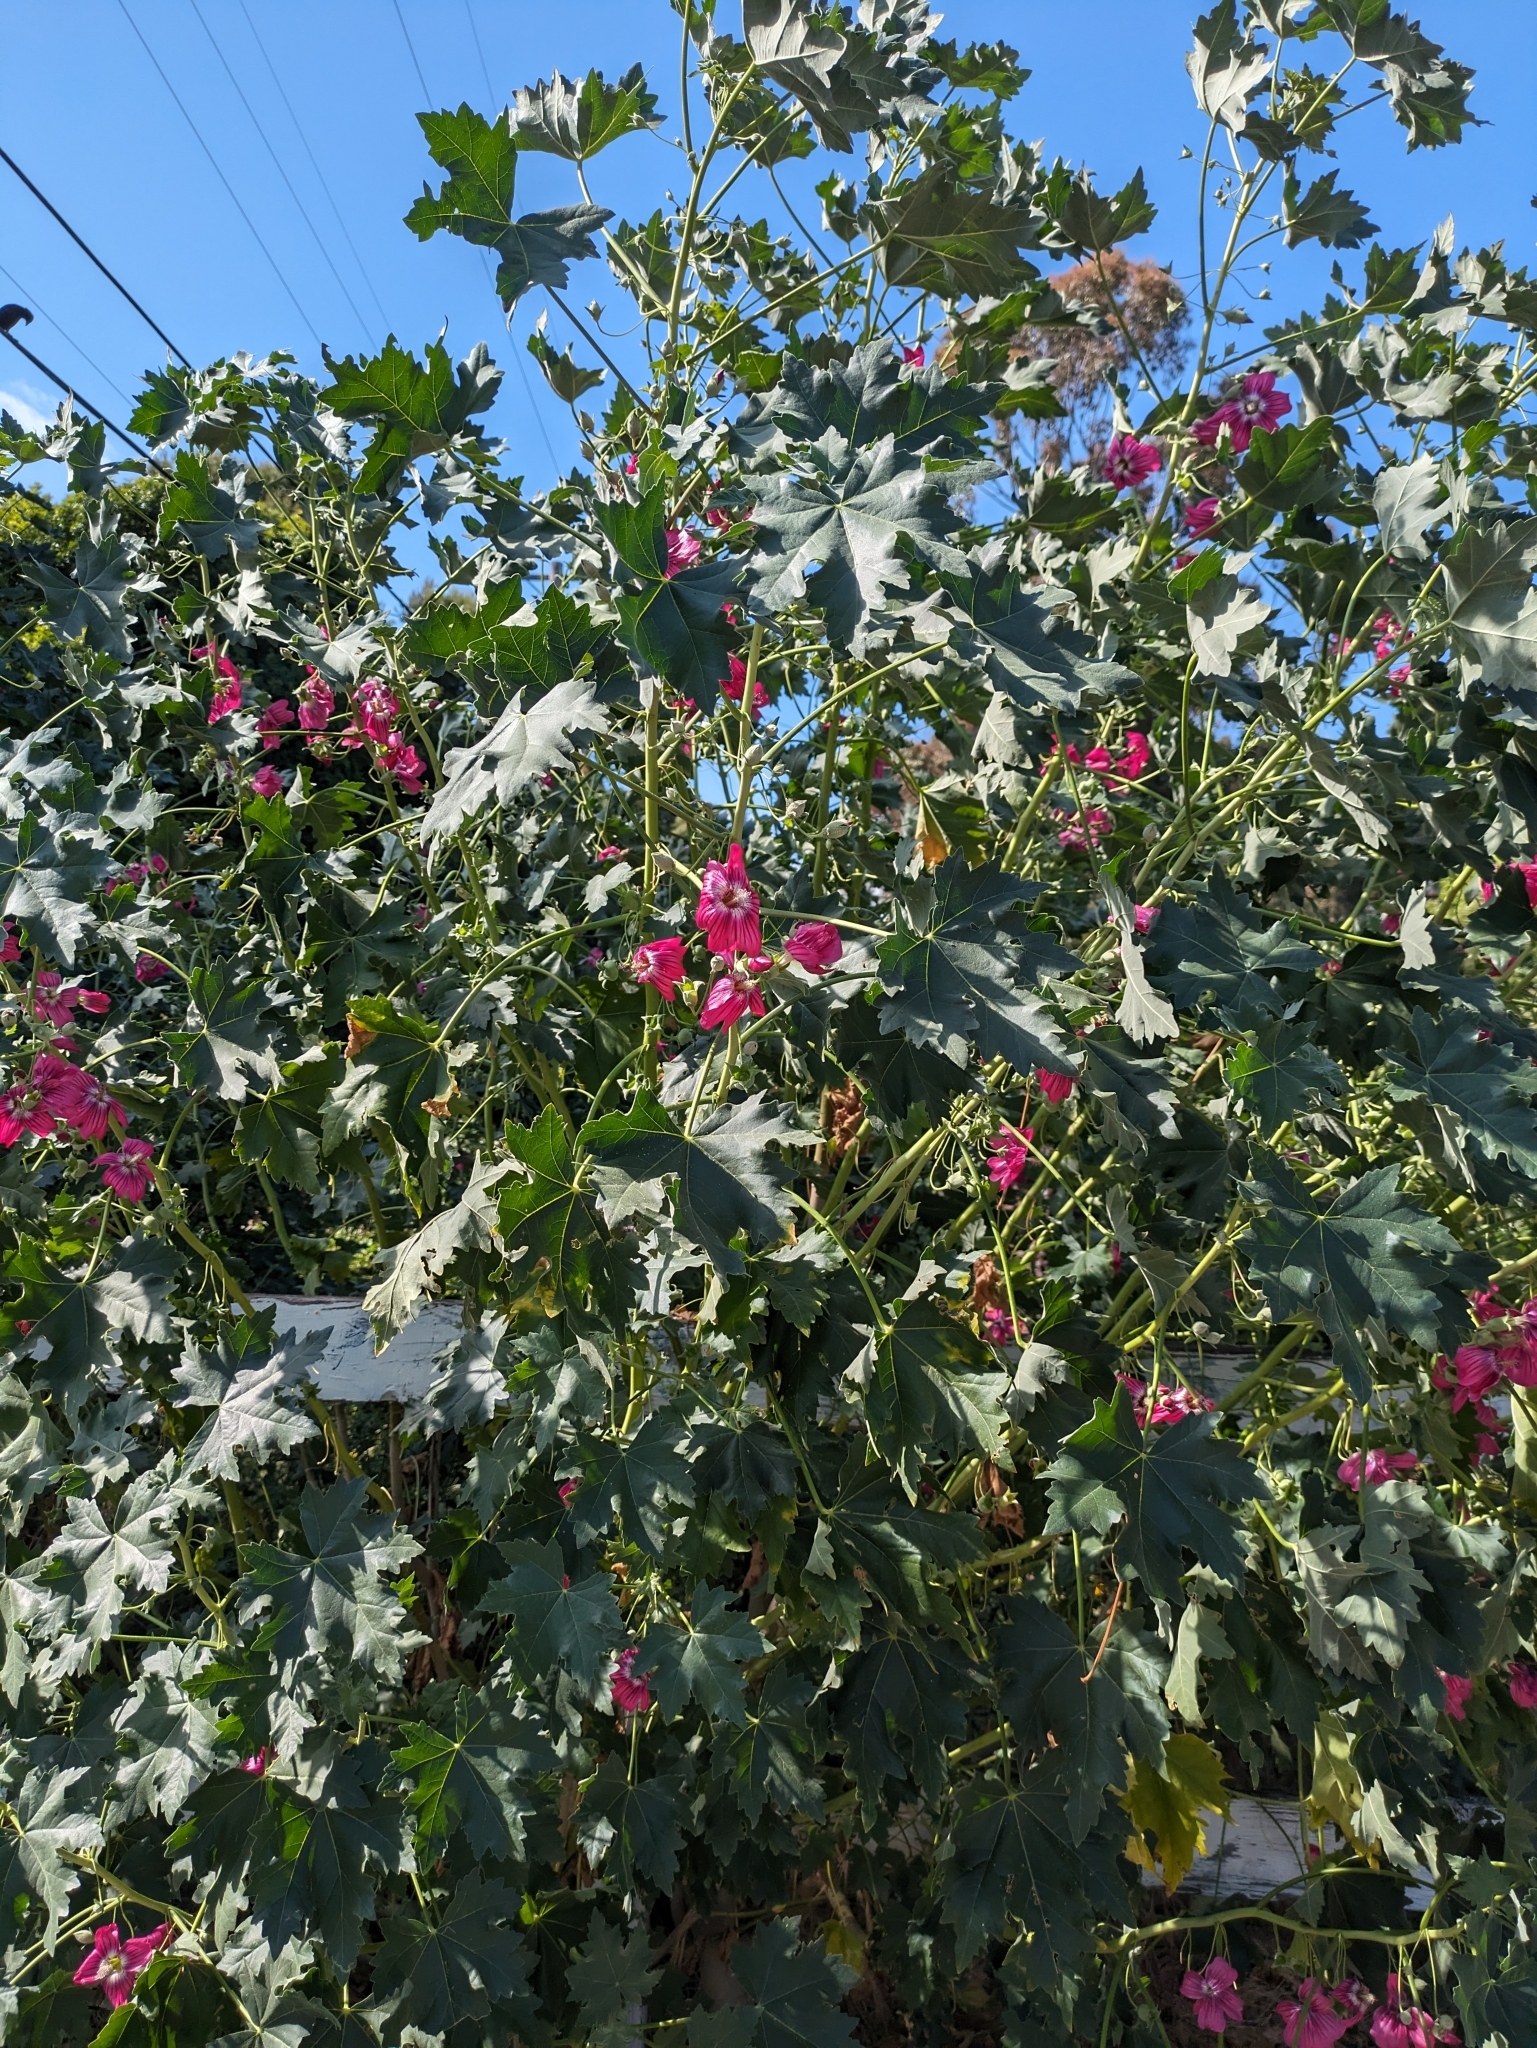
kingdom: Plantae
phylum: Tracheophyta
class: Magnoliopsida
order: Malvales
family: Malvaceae
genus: Malva
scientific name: Malva assurgentiflora
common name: Island mallow
